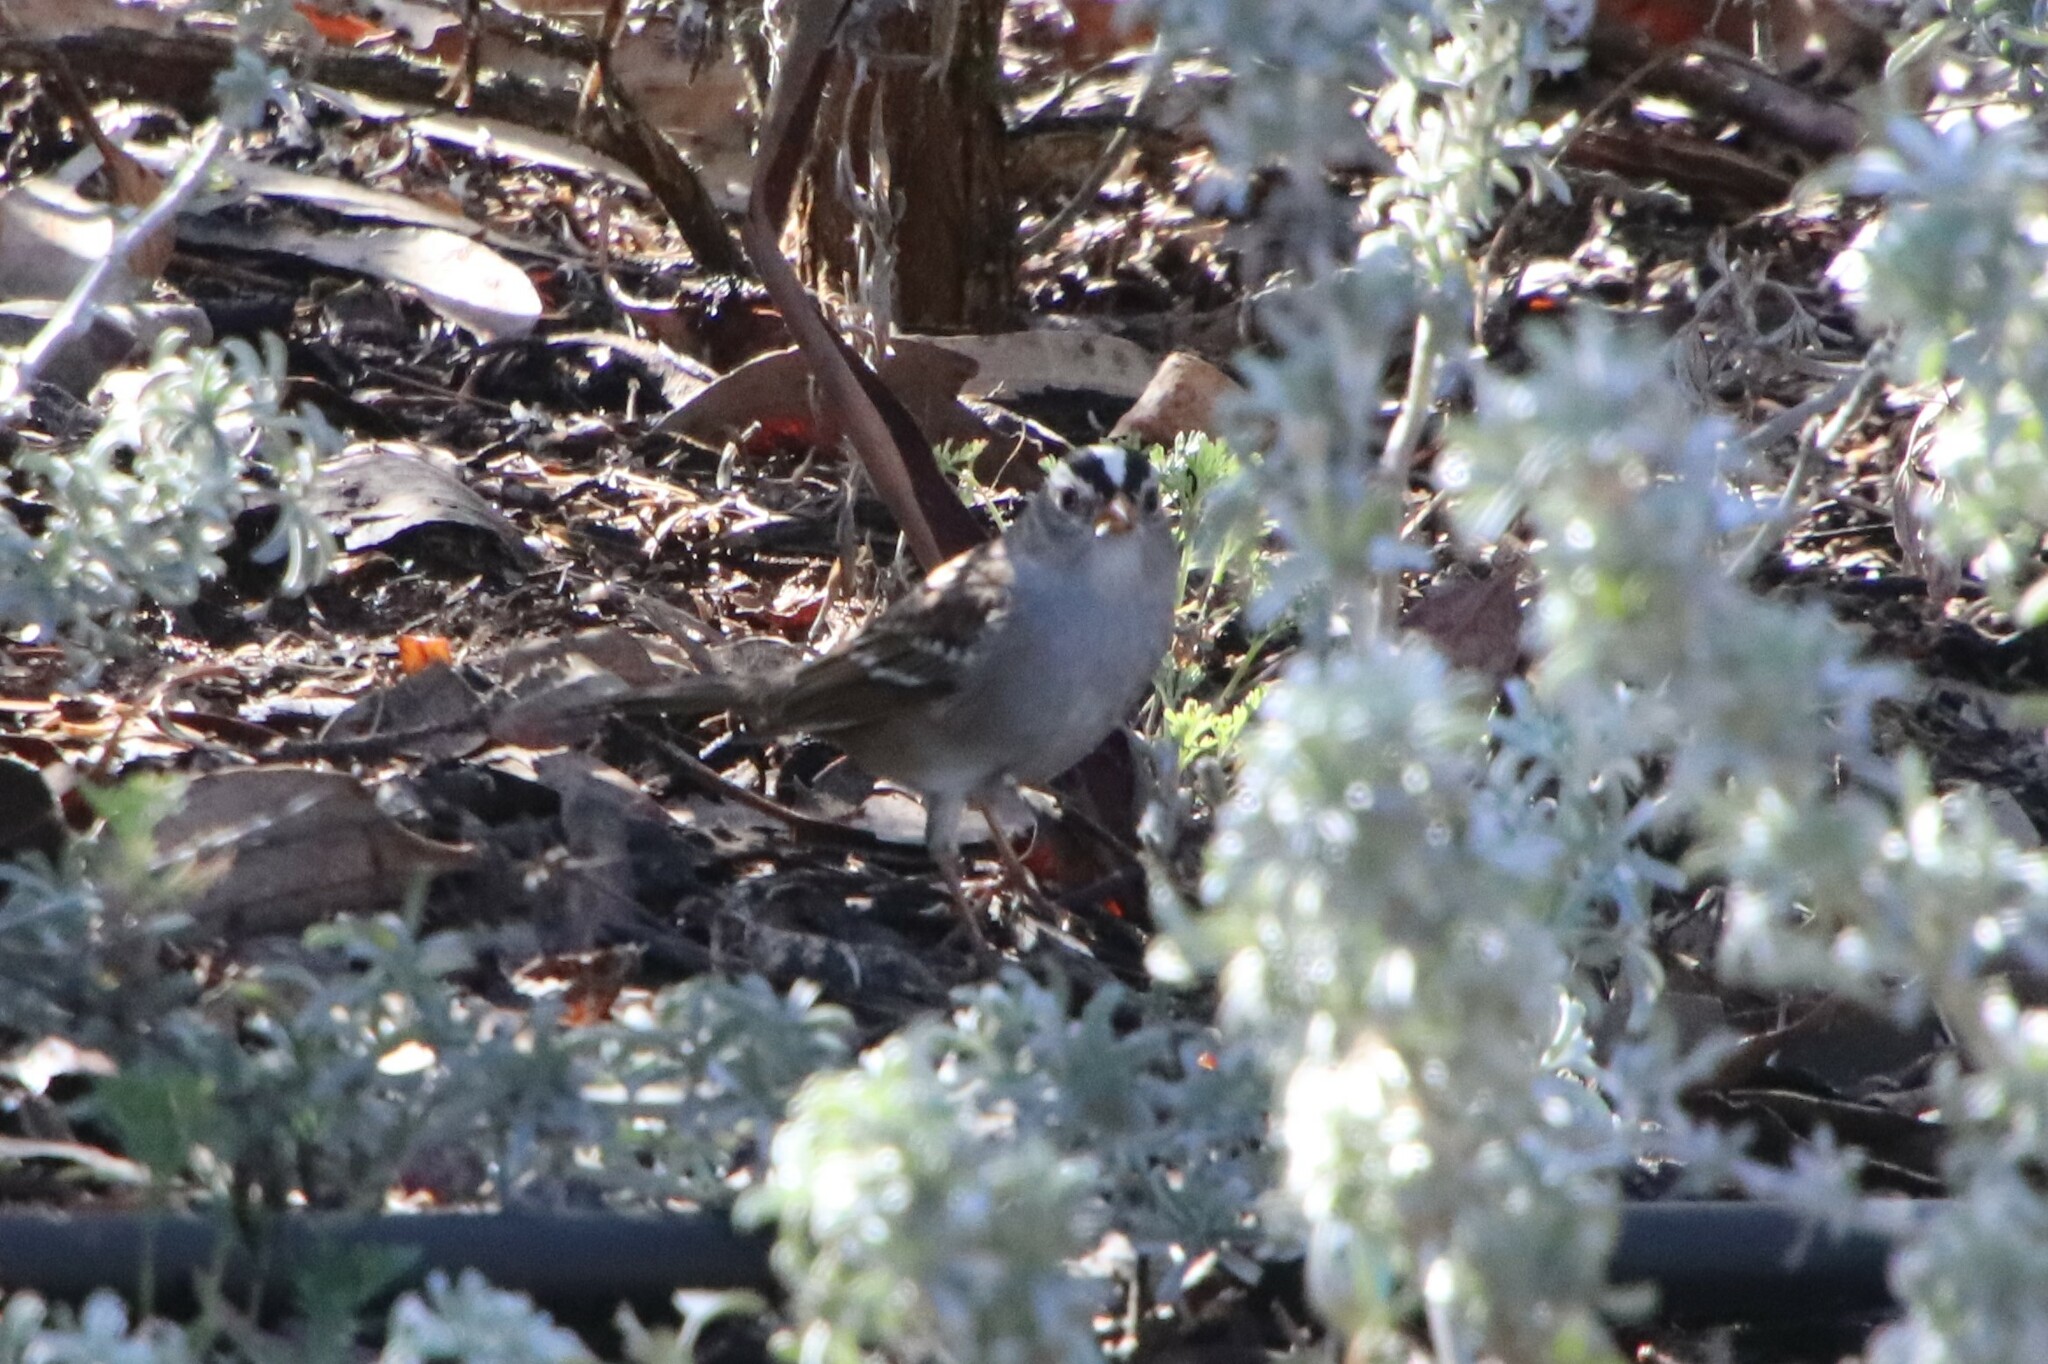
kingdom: Animalia
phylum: Chordata
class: Aves
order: Passeriformes
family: Passerellidae
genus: Zonotrichia
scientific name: Zonotrichia leucophrys
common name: White-crowned sparrow
